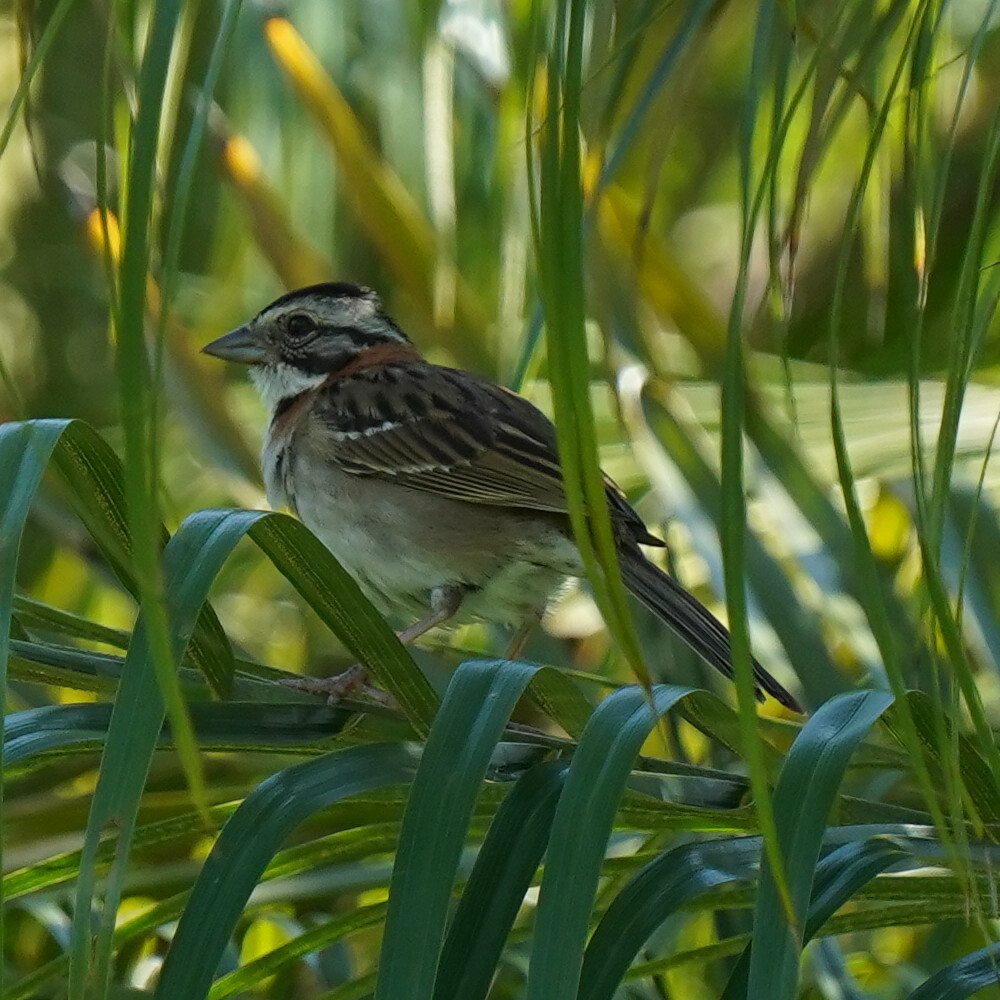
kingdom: Animalia
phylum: Chordata
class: Aves
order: Passeriformes
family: Passerellidae
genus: Zonotrichia
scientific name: Zonotrichia capensis
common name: Rufous-collared sparrow
